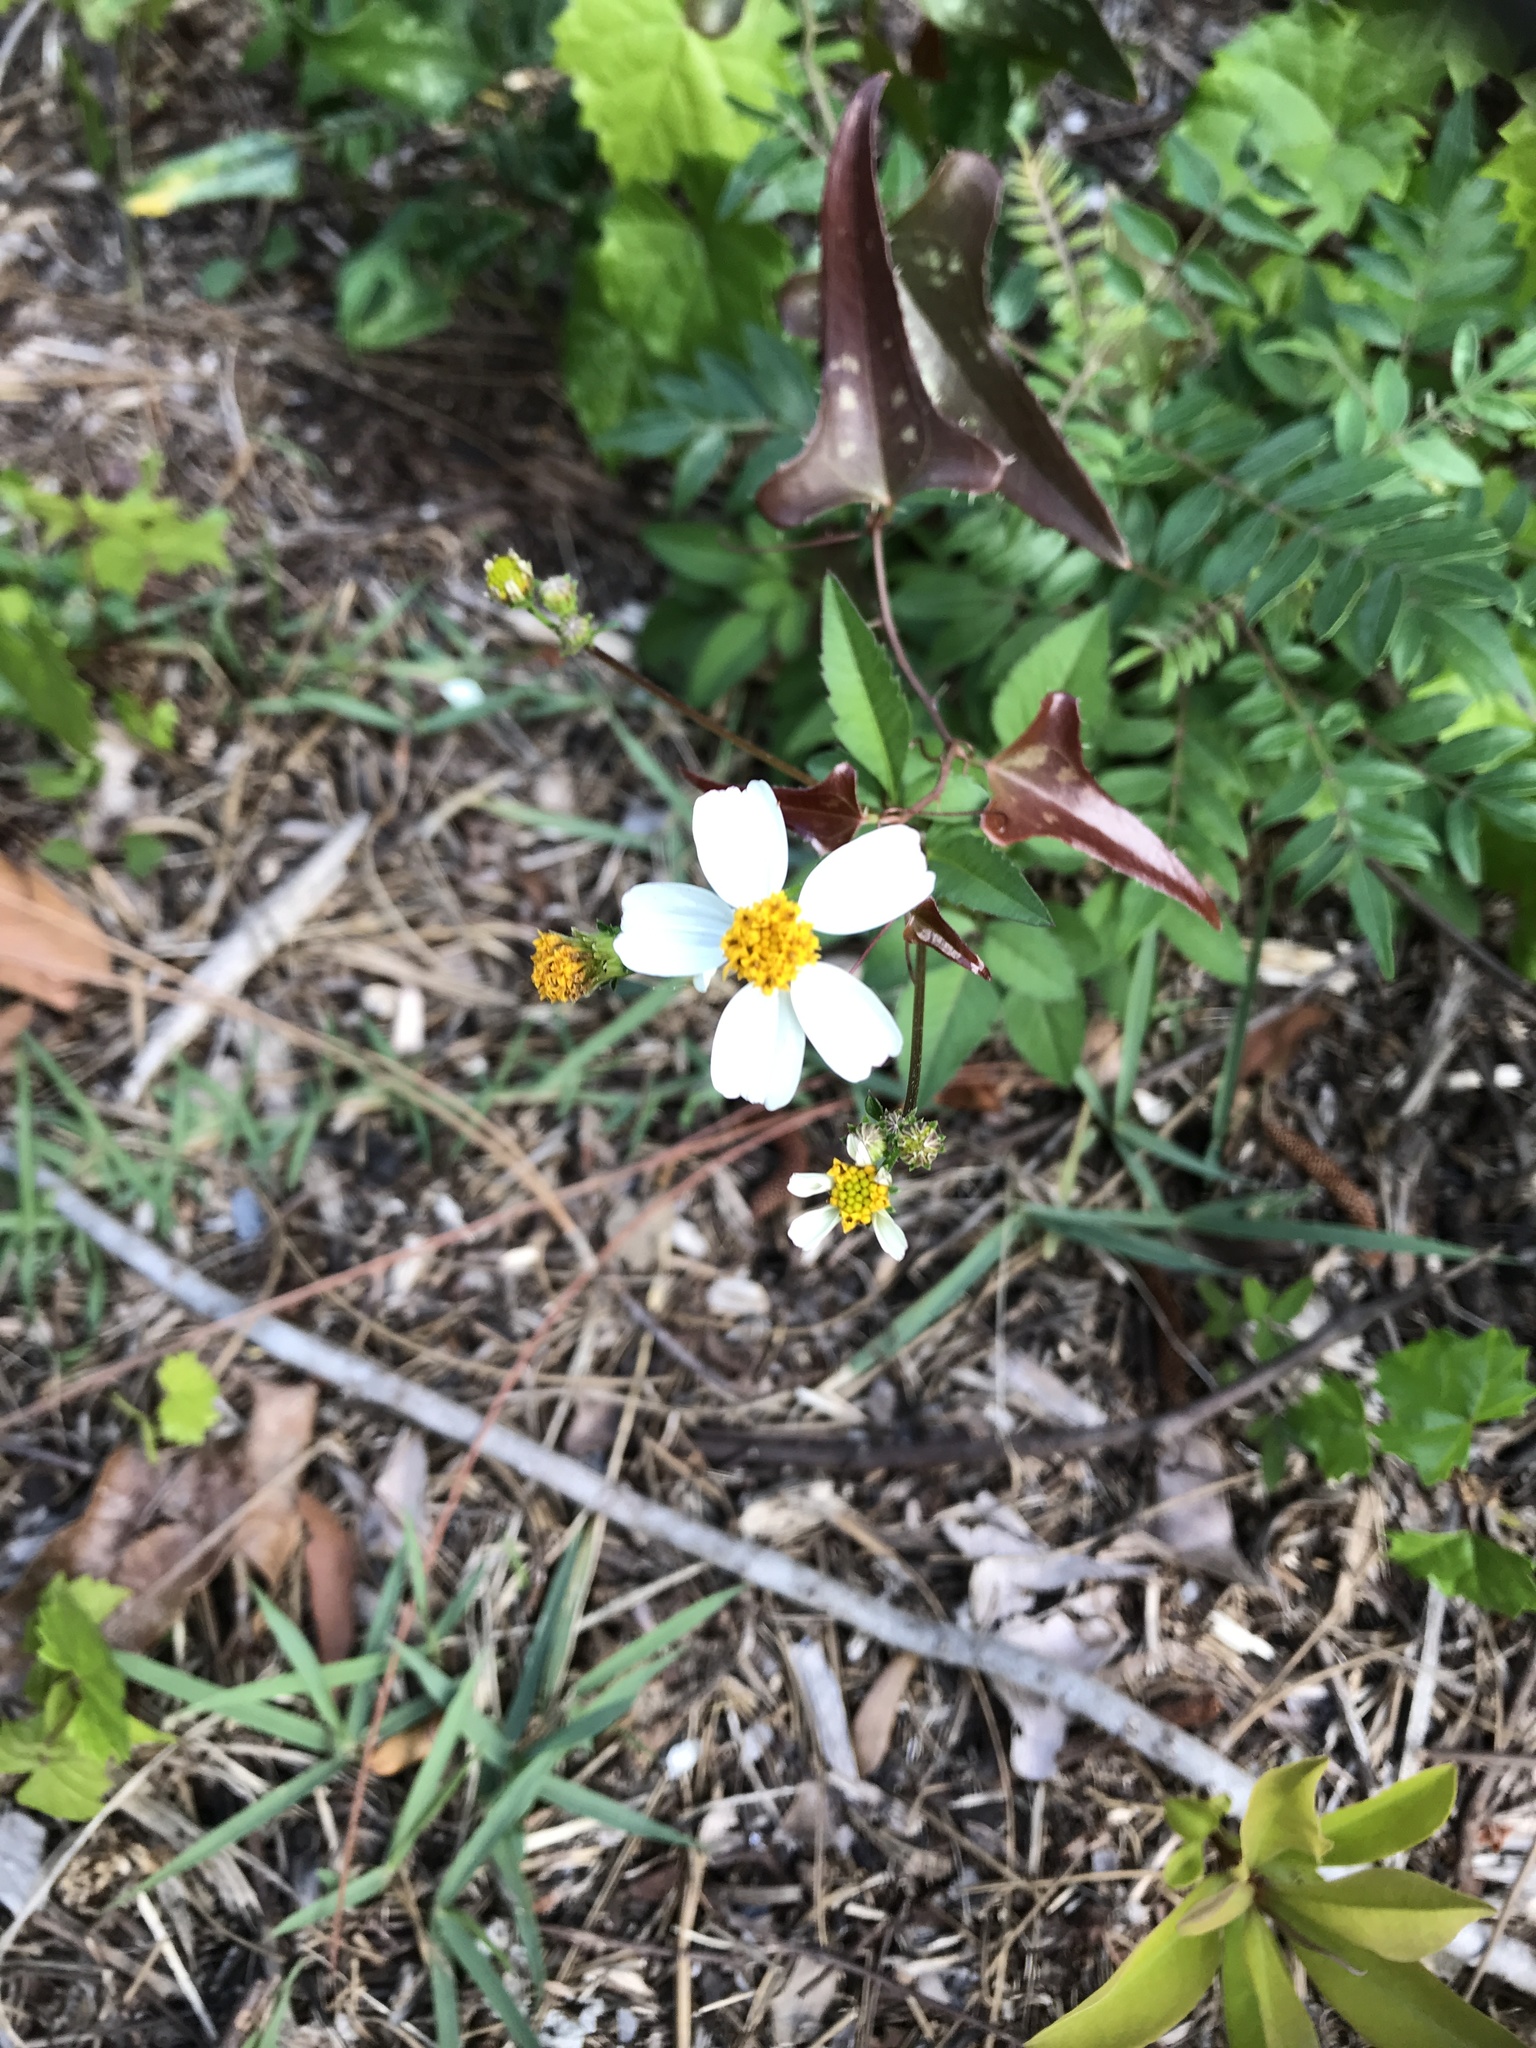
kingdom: Plantae
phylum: Tracheophyta
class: Magnoliopsida
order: Asterales
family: Asteraceae
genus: Bidens
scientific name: Bidens alba
